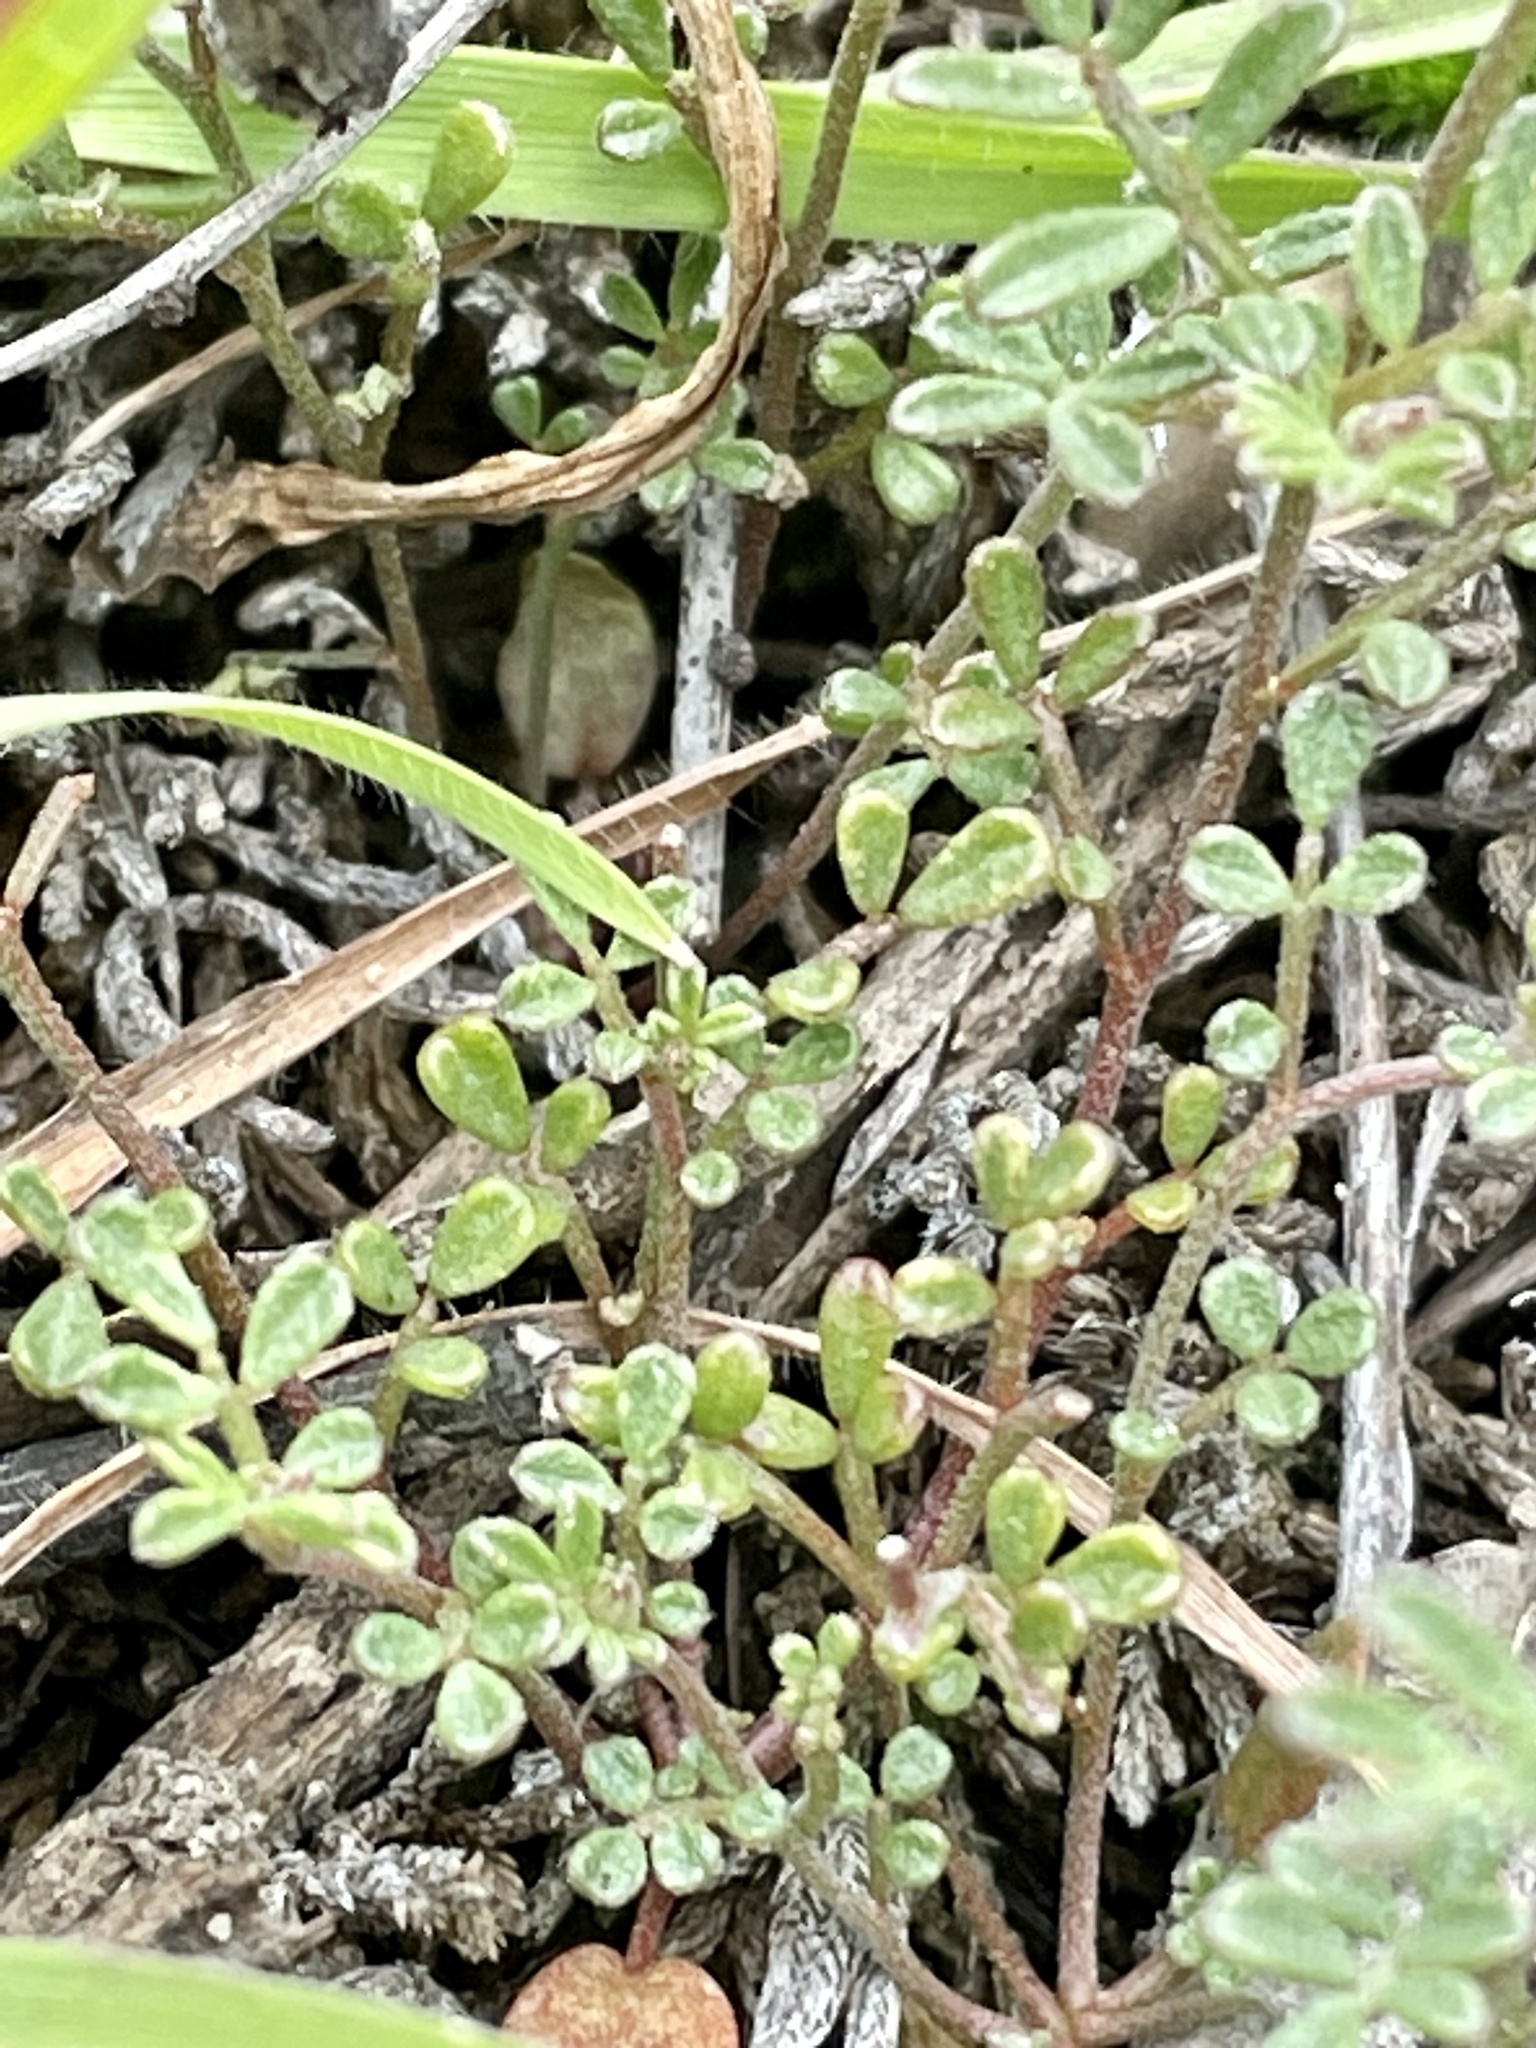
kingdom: Plantae
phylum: Tracheophyta
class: Magnoliopsida
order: Fabales
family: Fabaceae
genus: Acmispon
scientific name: Acmispon strigosus
